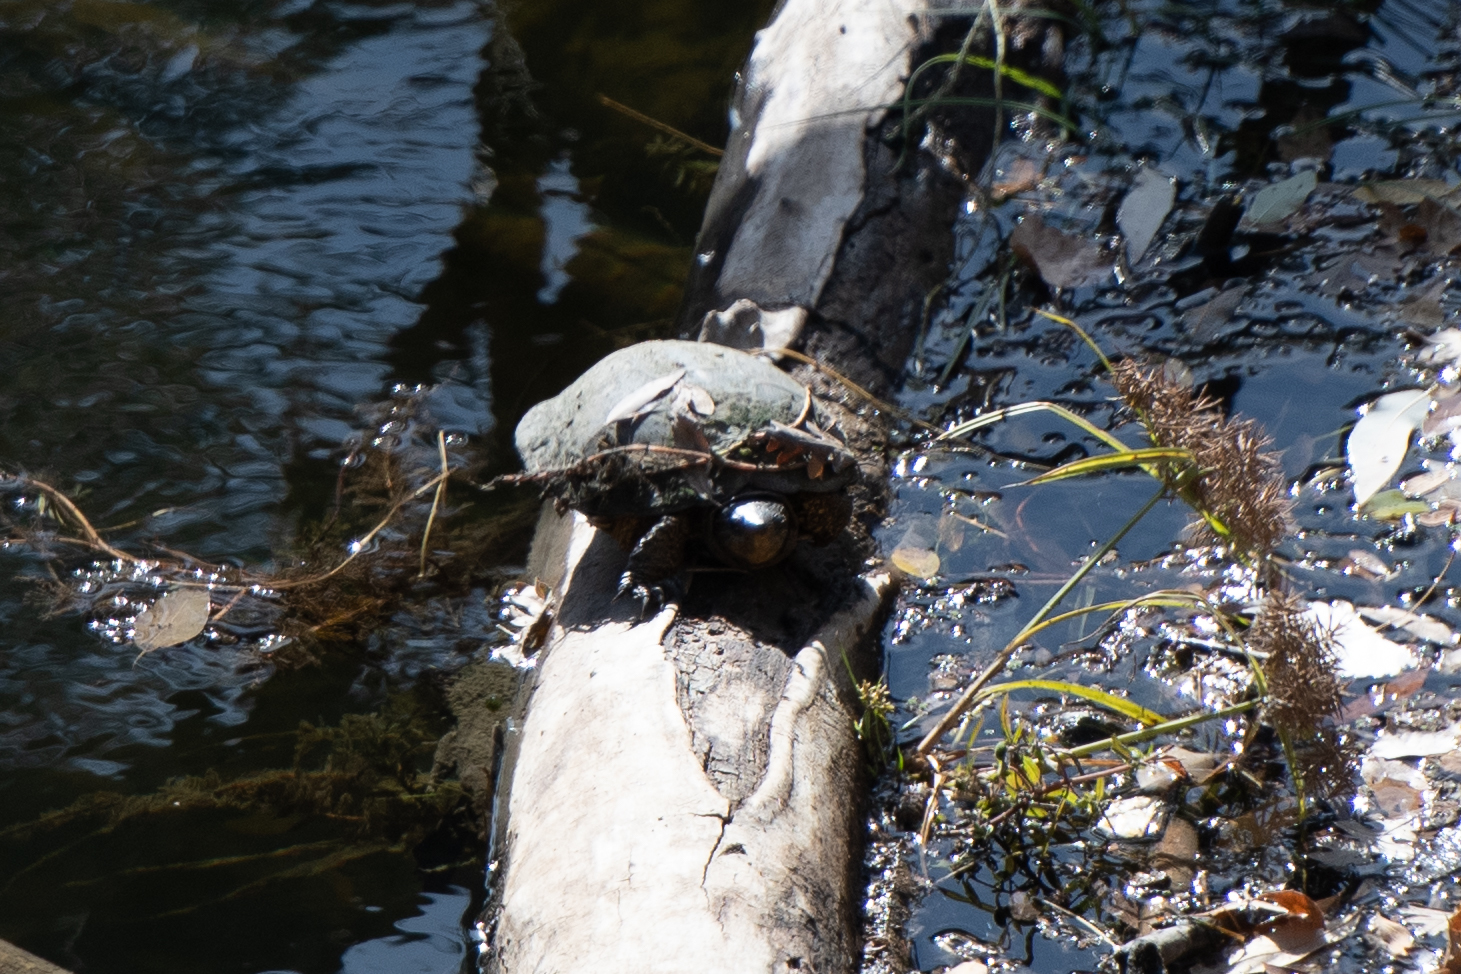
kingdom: Animalia
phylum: Chordata
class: Testudines
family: Emydidae
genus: Actinemys
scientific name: Actinemys marmorata
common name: Western pond turtle
